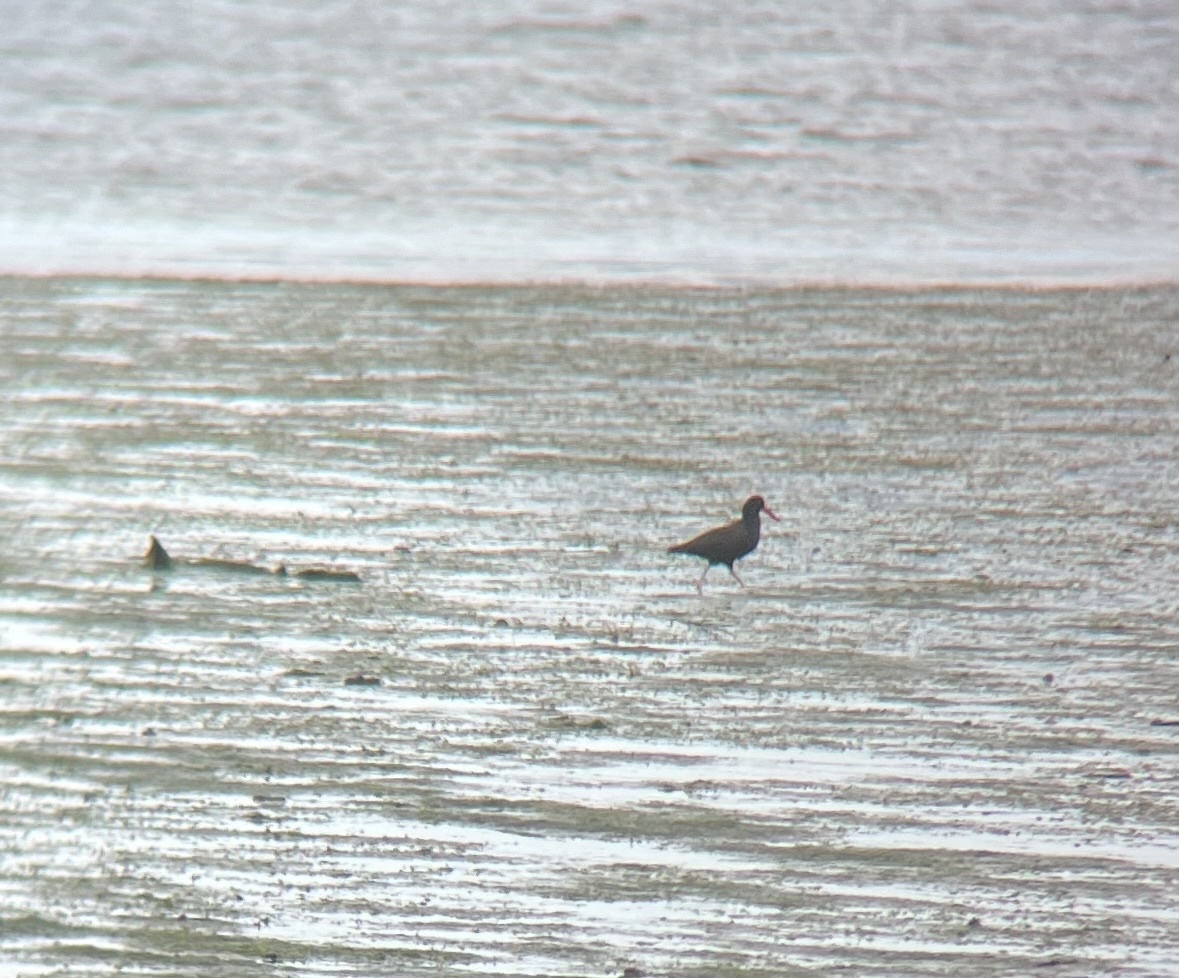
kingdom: Animalia
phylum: Chordata
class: Aves
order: Charadriiformes
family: Haematopodidae
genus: Haematopus
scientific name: Haematopus bachmani
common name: Black oystercatcher
